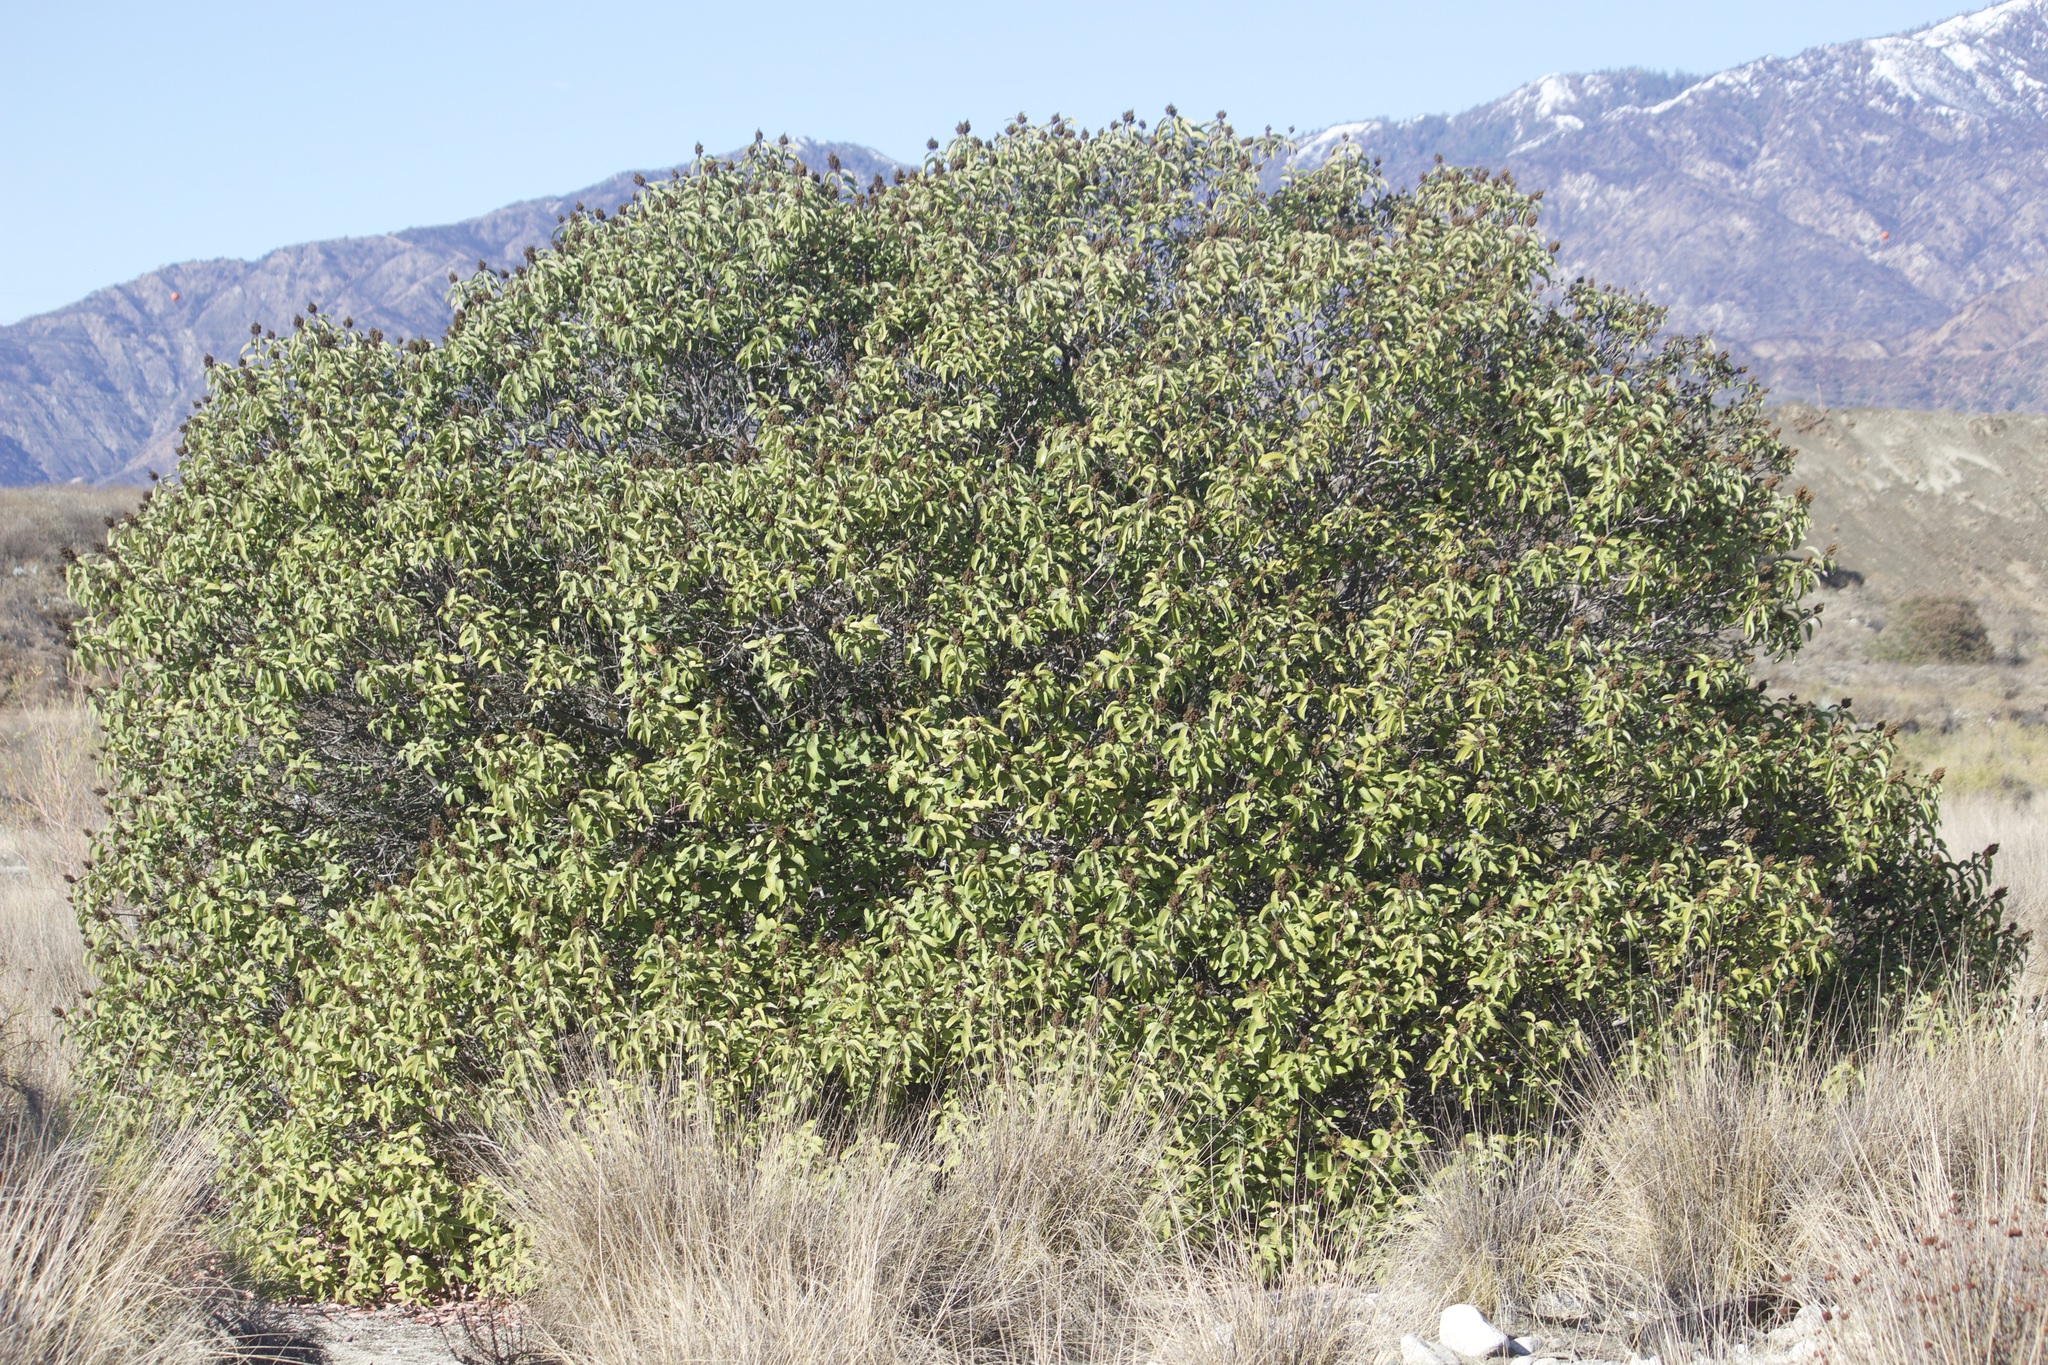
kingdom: Plantae
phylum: Tracheophyta
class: Magnoliopsida
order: Sapindales
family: Anacardiaceae
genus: Malosma
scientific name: Malosma laurina
